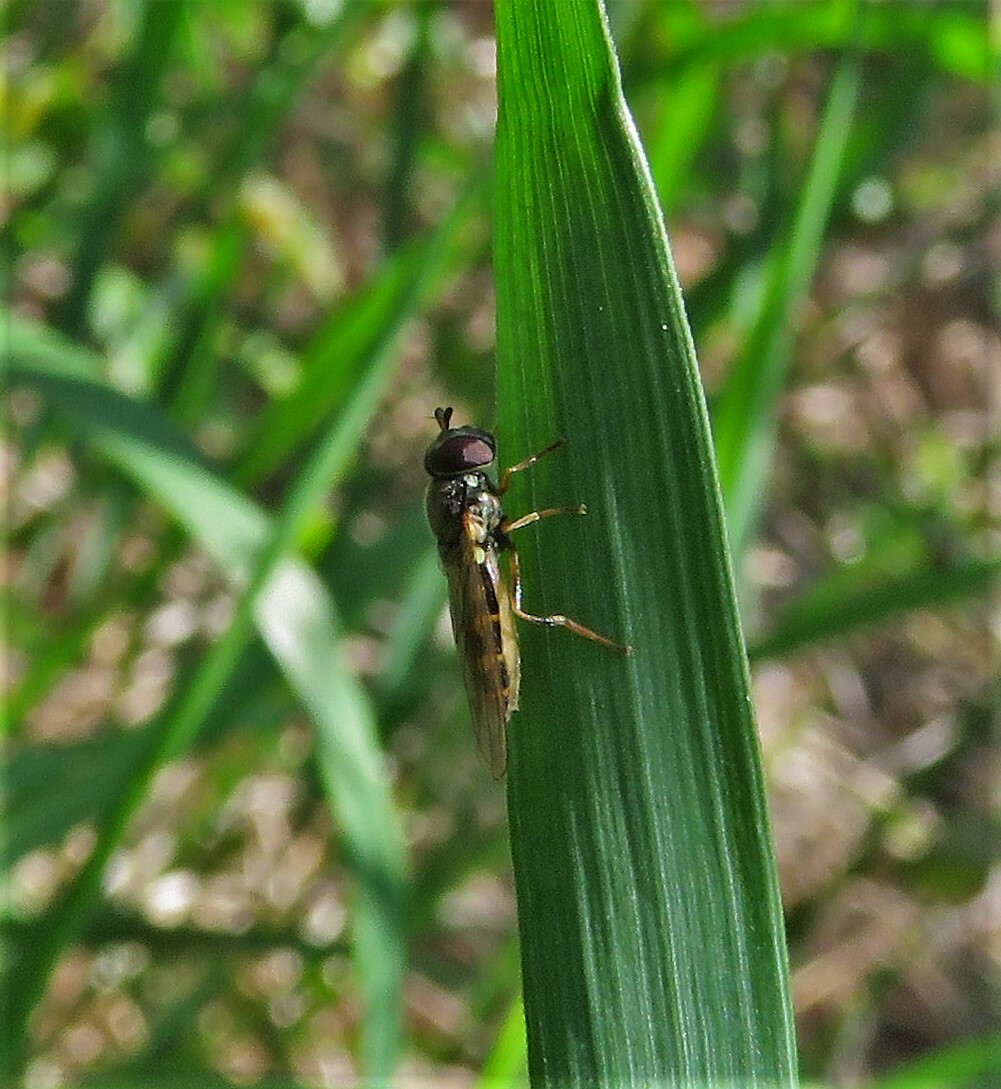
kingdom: Animalia
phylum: Arthropoda
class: Insecta
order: Diptera
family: Syrphidae
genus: Melanostoma
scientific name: Melanostoma mellina
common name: Hover fly
